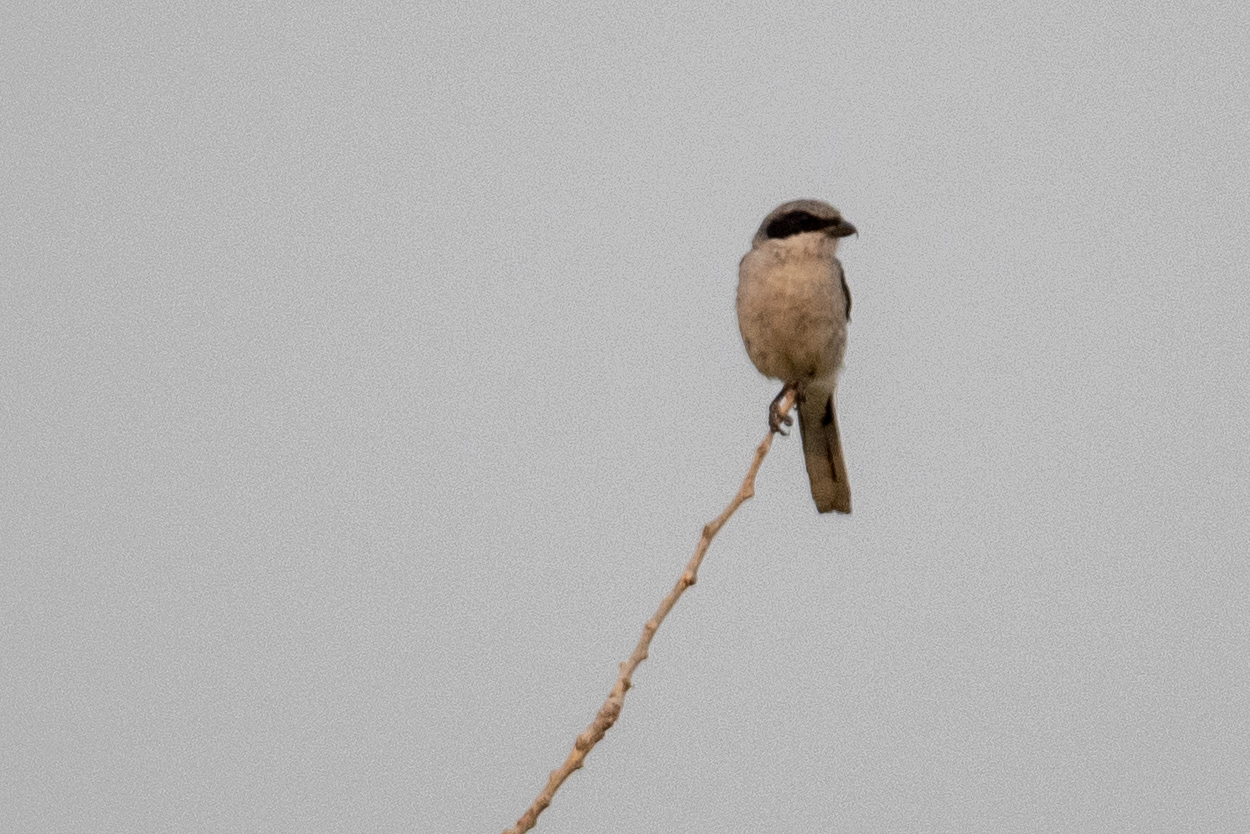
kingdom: Animalia
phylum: Chordata
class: Aves
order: Passeriformes
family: Laniidae
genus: Lanius
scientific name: Lanius ludovicianus
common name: Loggerhead shrike
